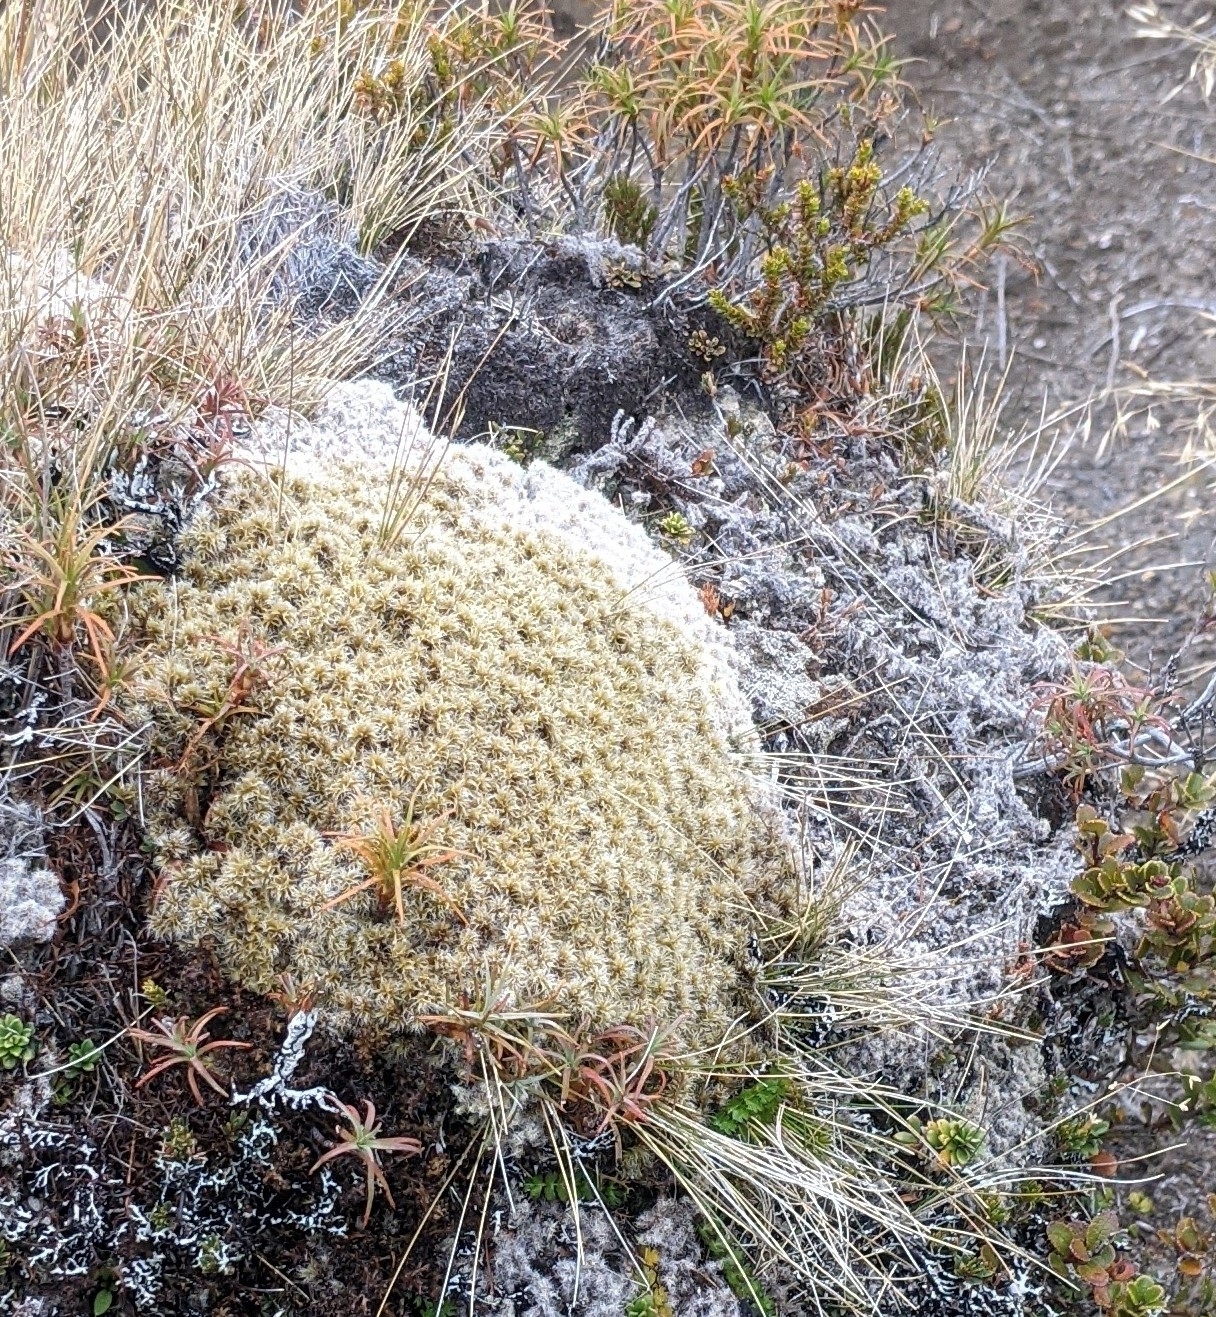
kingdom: Plantae
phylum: Bryophyta
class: Bryopsida
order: Grimmiales
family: Grimmiaceae
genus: Racomitrium
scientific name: Racomitrium lanuginosum
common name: Hoary rock moss
